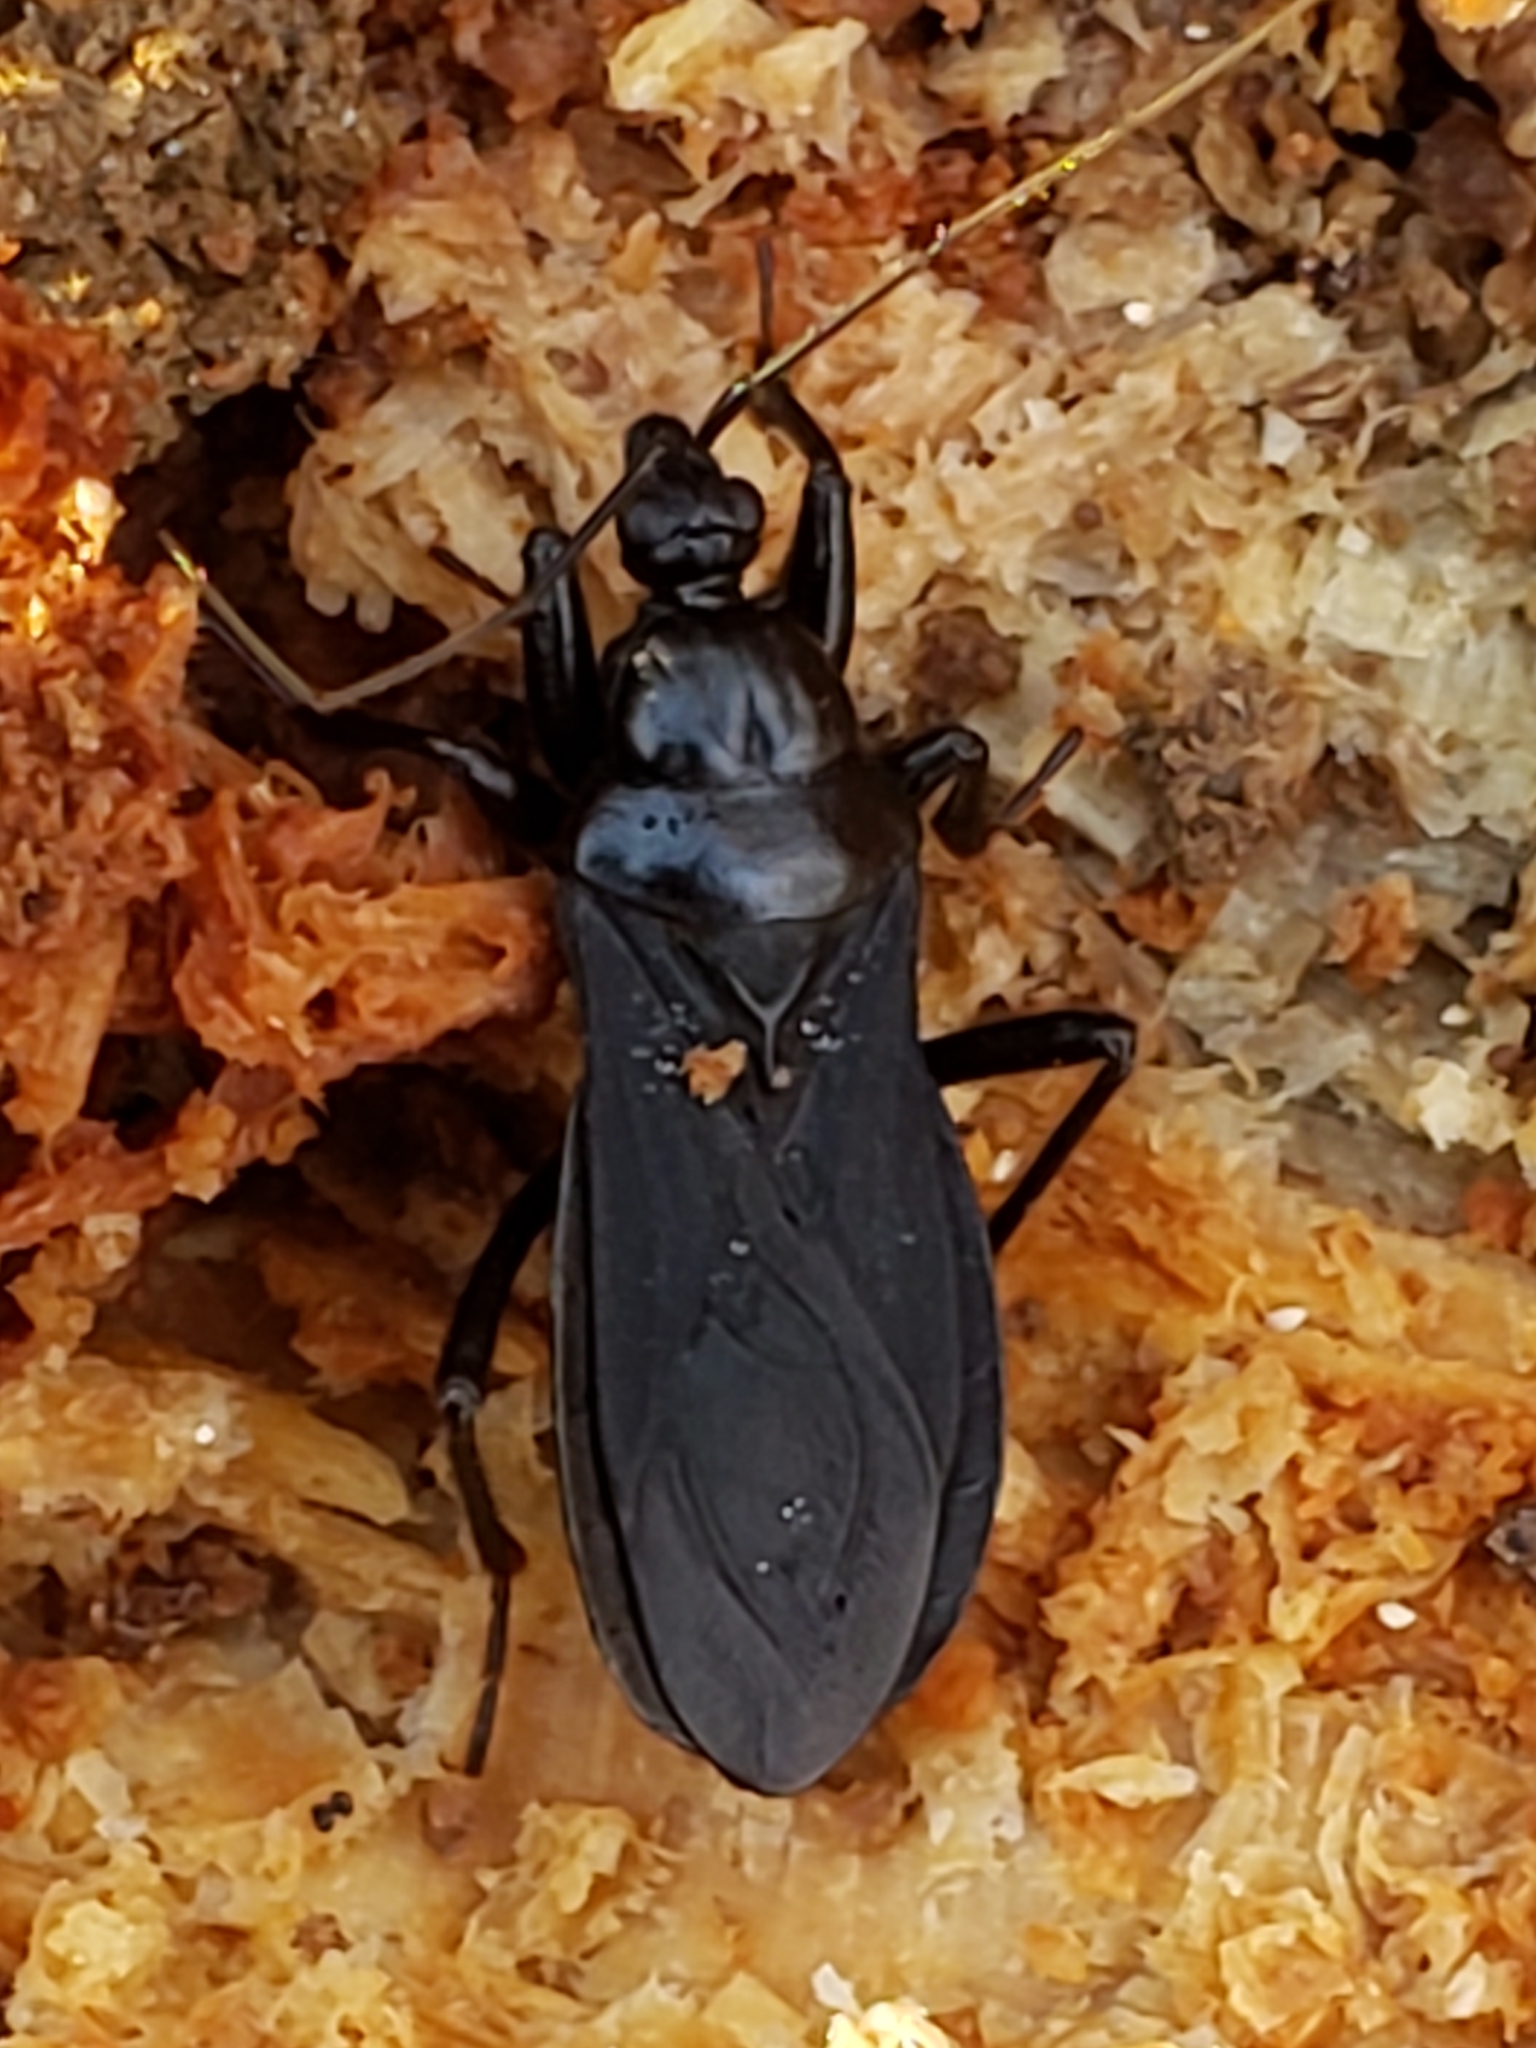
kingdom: Animalia
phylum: Arthropoda
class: Insecta
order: Hemiptera
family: Reduviidae
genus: Melanolestes
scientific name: Melanolestes picipes
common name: Assassin bug
